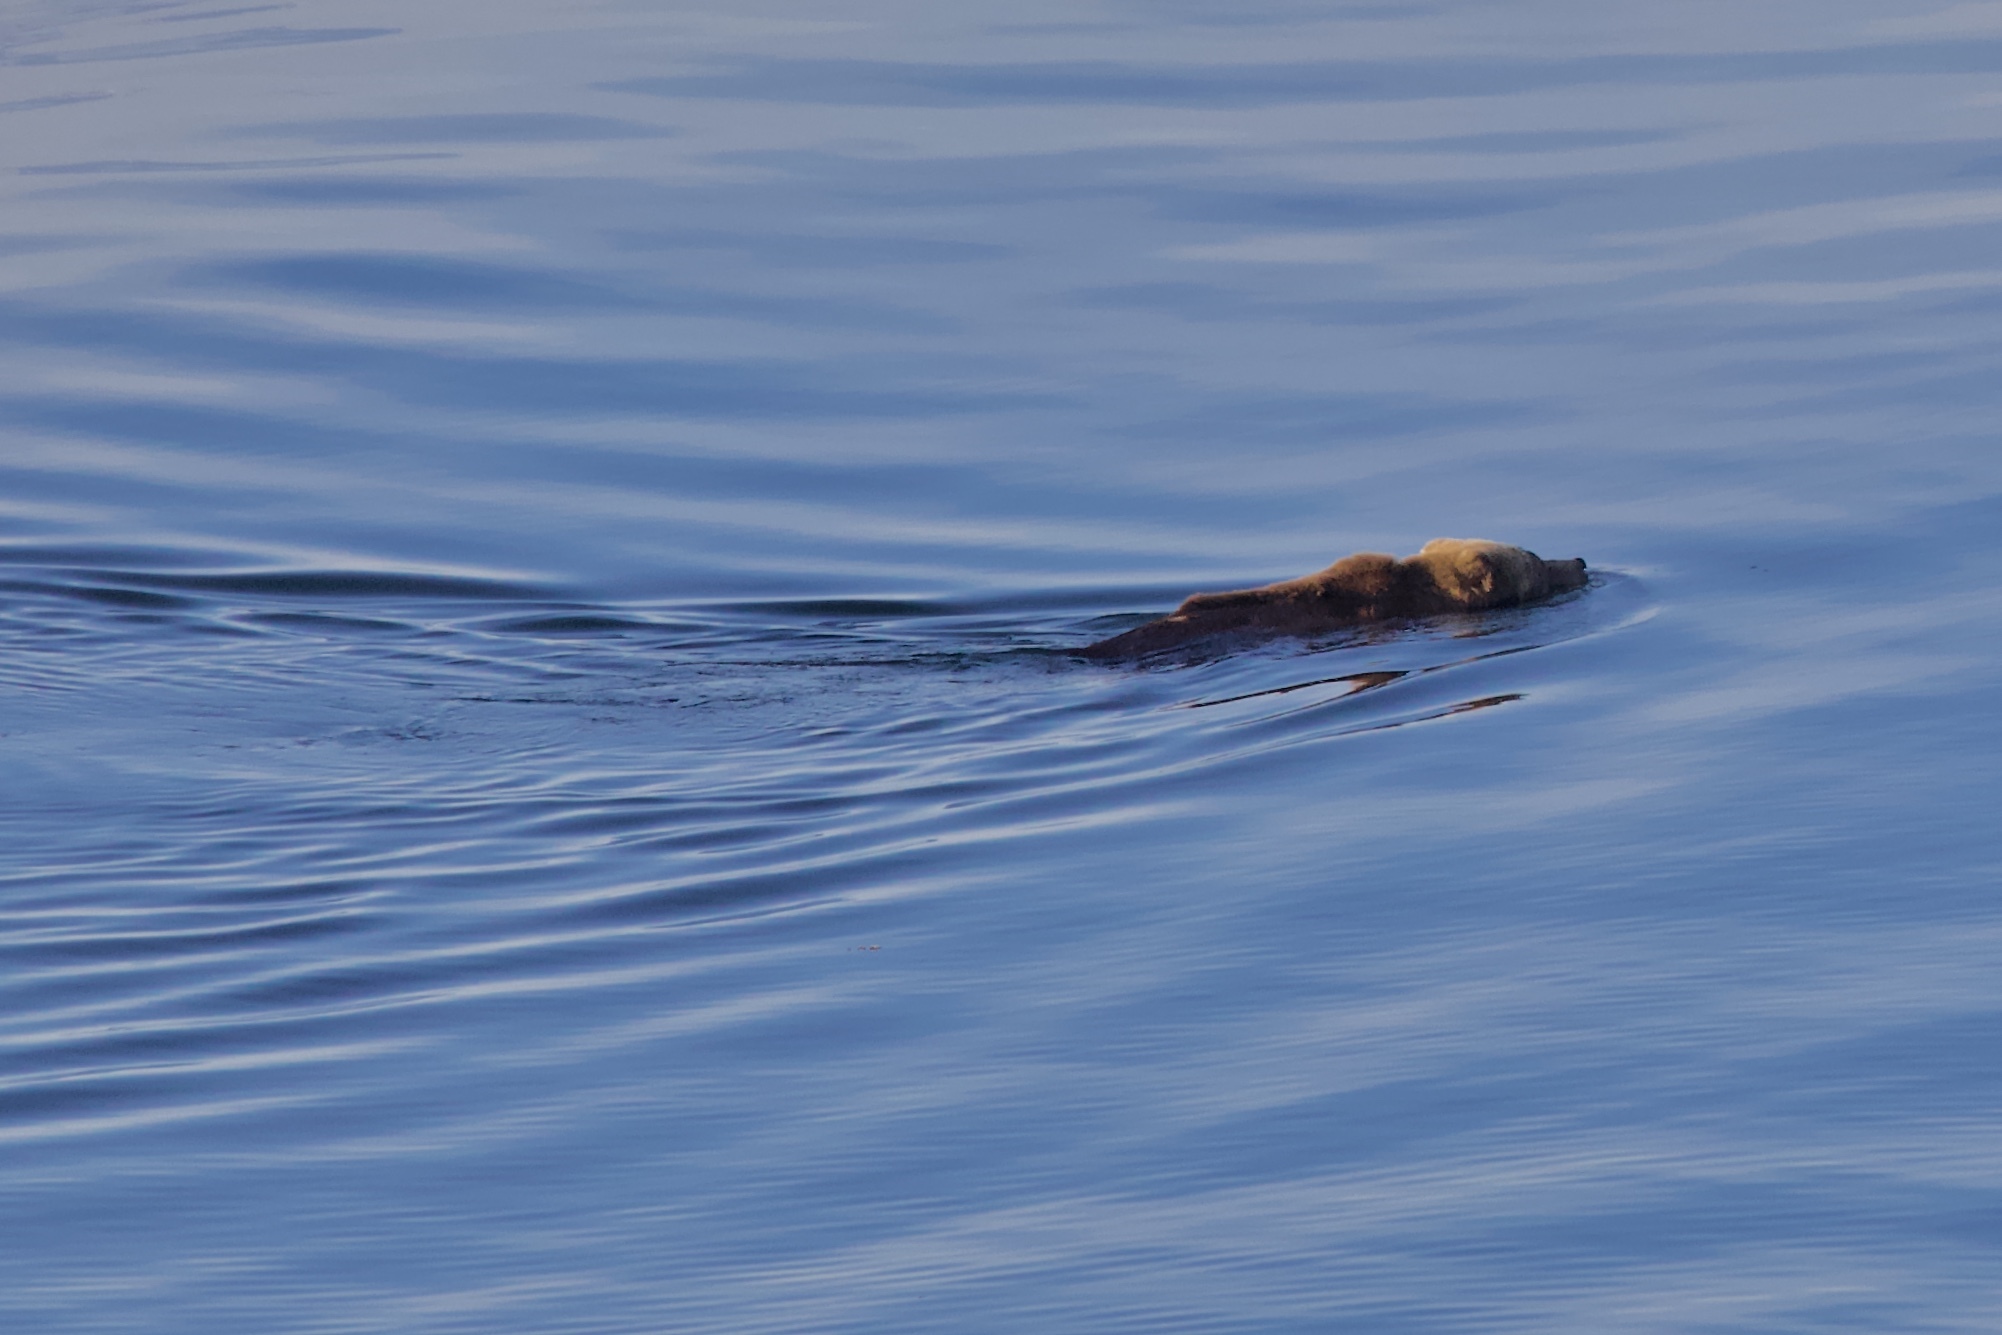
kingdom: Animalia
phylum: Chordata
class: Mammalia
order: Carnivora
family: Ursidae
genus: Ursus
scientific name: Ursus arctos
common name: Brown bear
